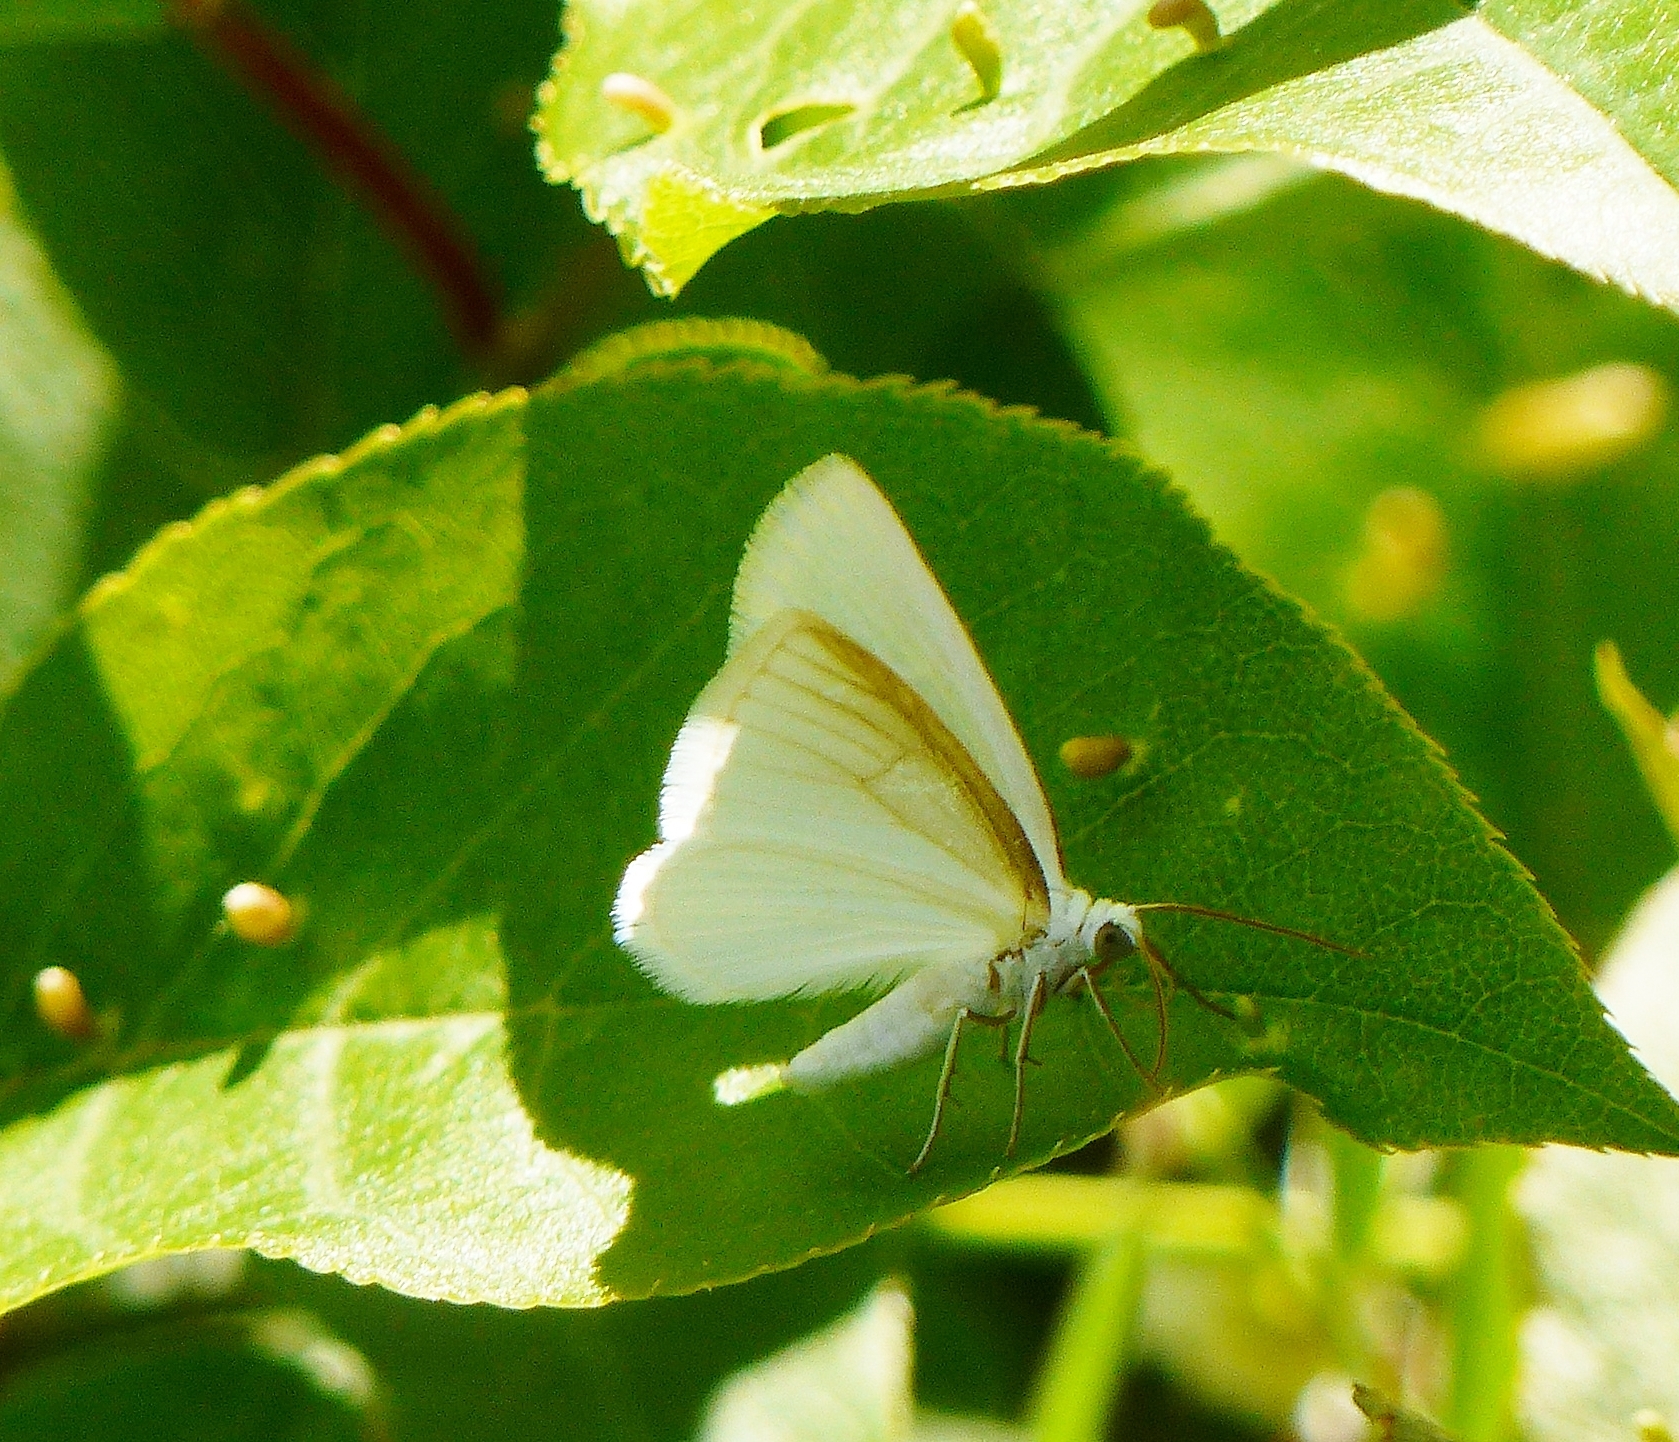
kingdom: Animalia
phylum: Arthropoda
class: Insecta
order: Lepidoptera
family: Geometridae
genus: Lomographa
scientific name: Lomographa vestaliata
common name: White spring moth
